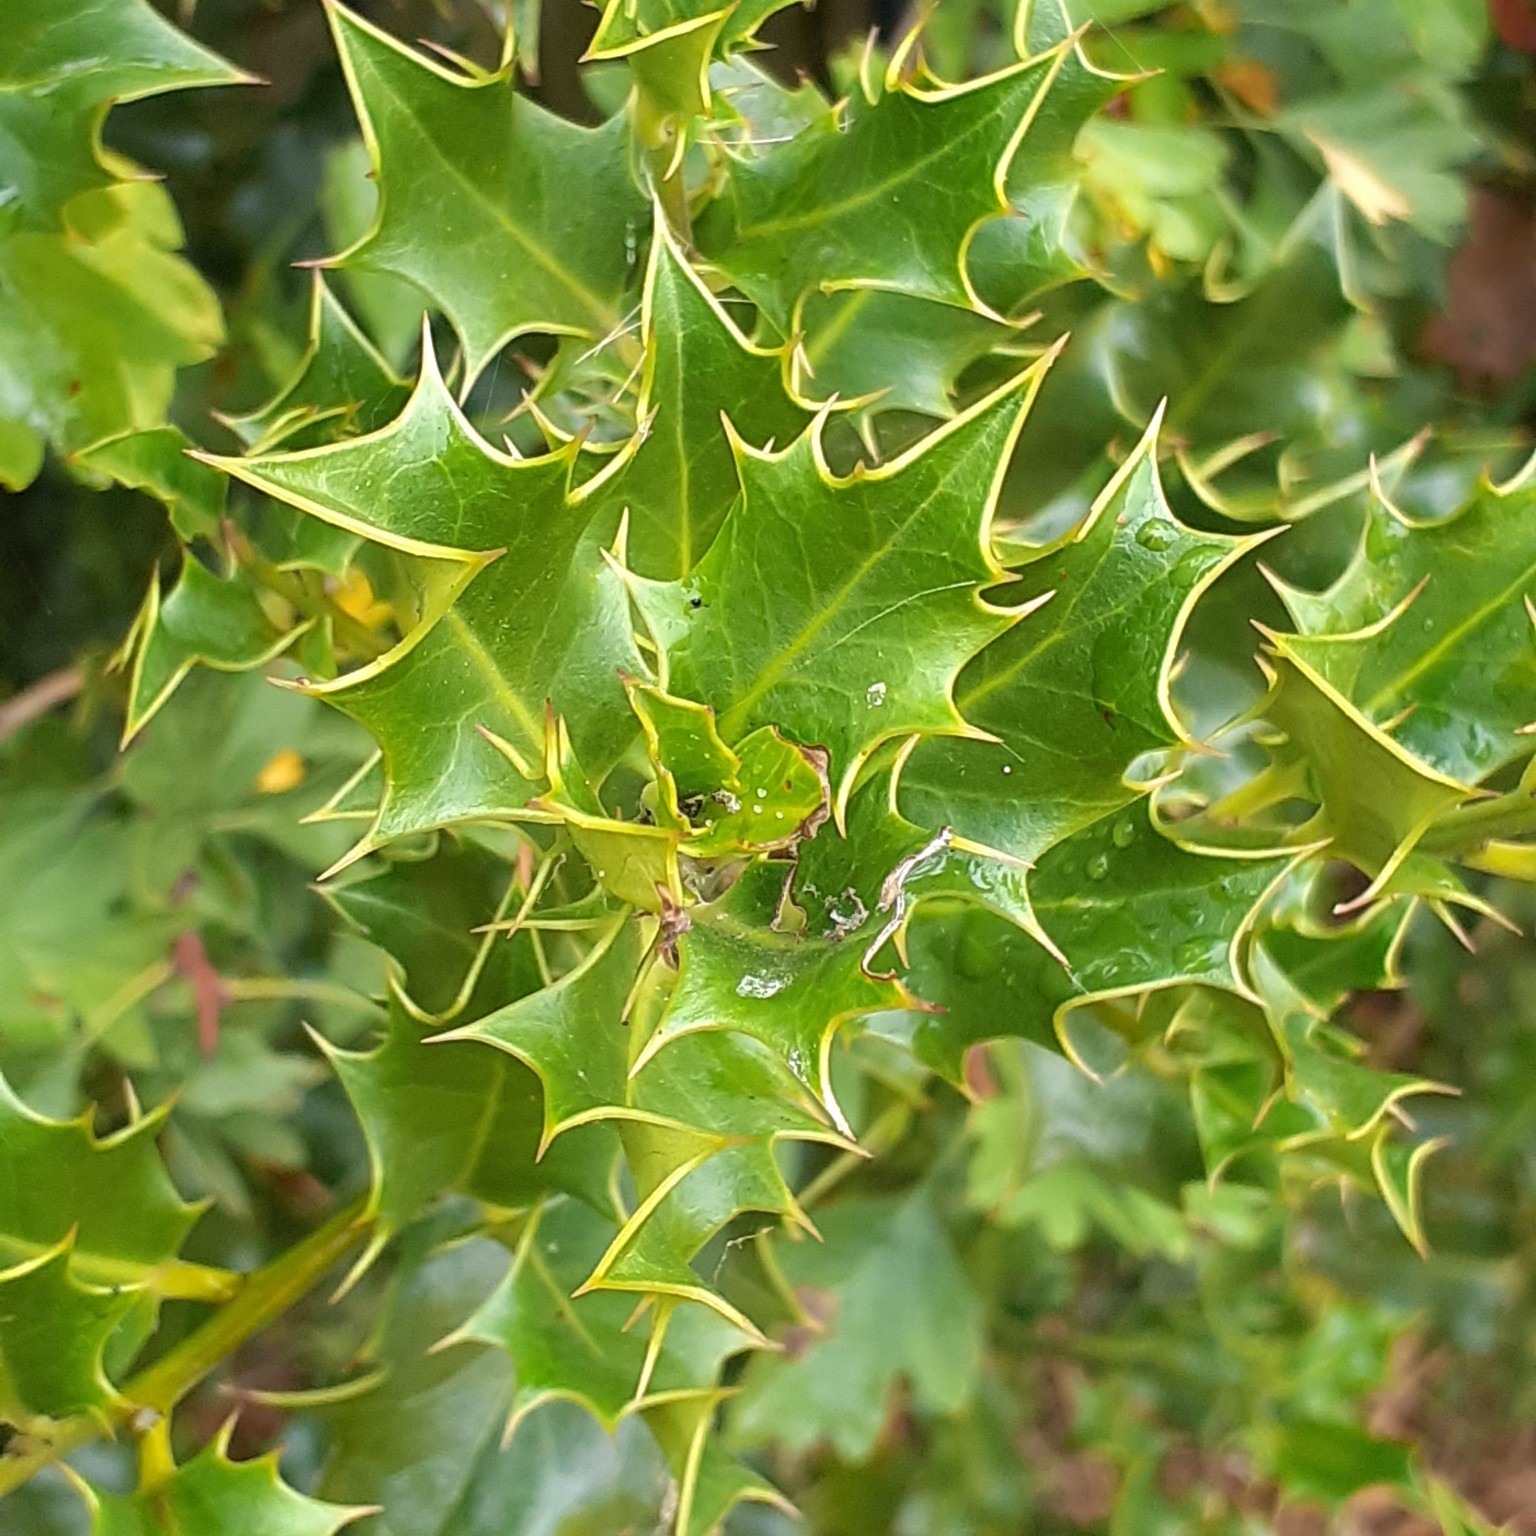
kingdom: Plantae
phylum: Tracheophyta
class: Magnoliopsida
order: Aquifoliales
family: Aquifoliaceae
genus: Ilex
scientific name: Ilex aquifolium
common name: English holly
